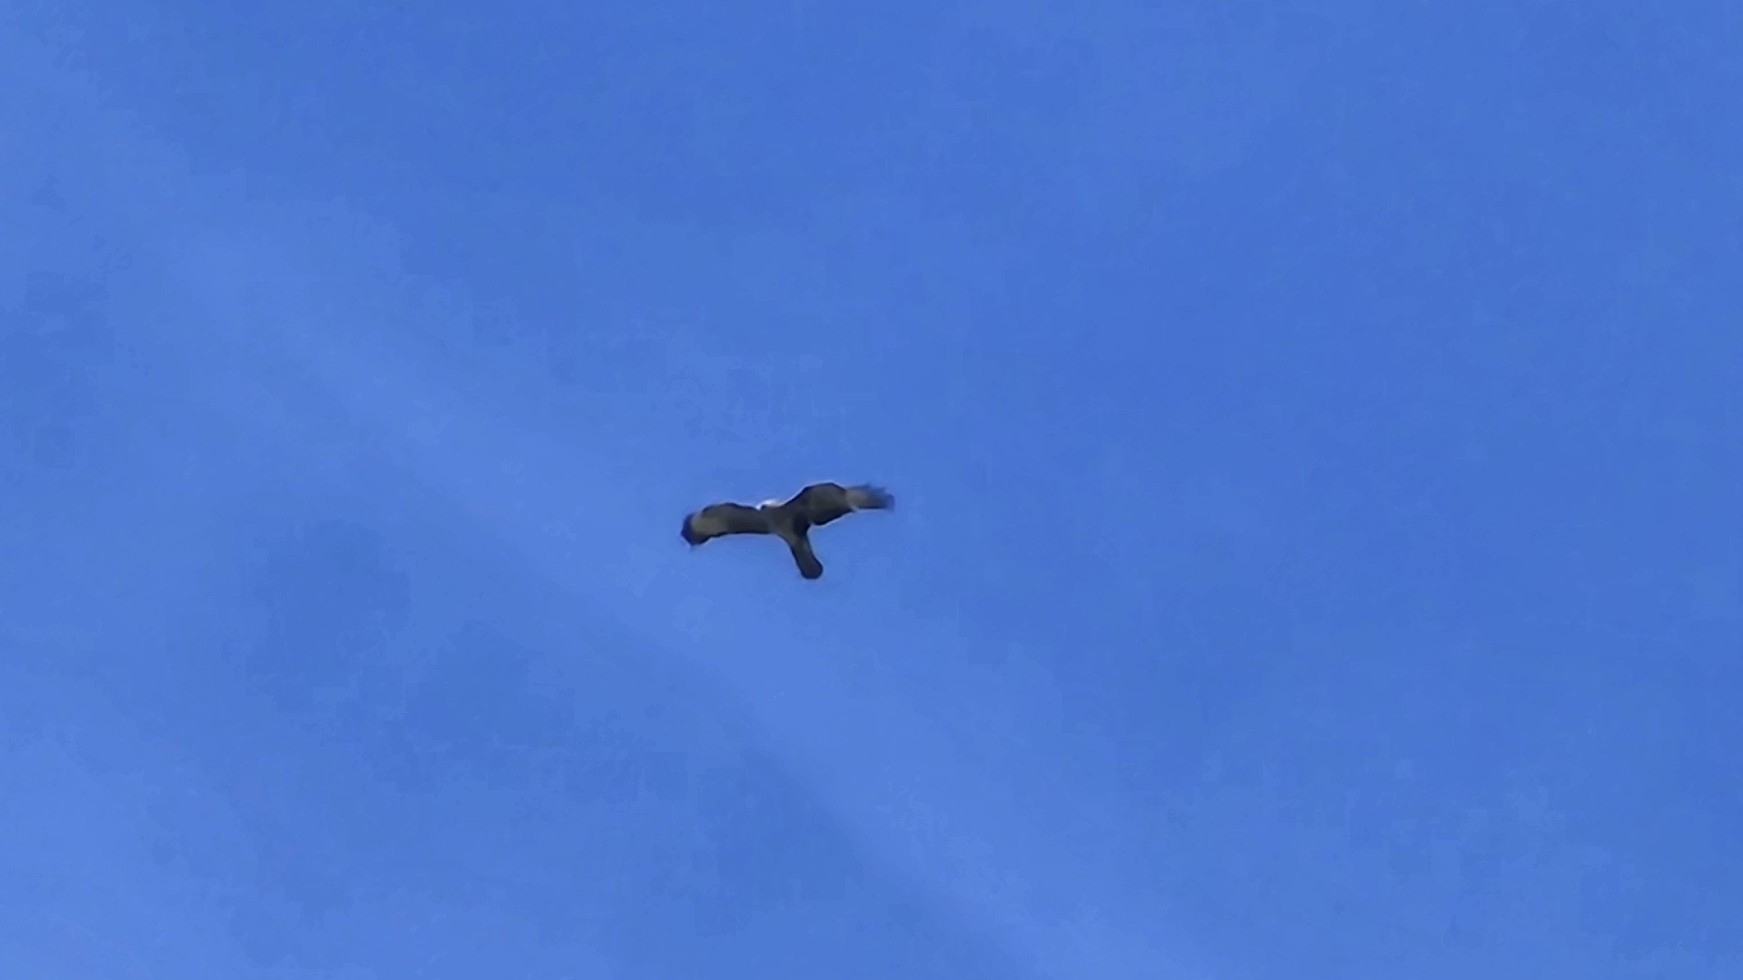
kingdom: Animalia
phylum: Chordata
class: Aves
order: Accipitriformes
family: Accipitridae
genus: Buteo
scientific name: Buteo buteo
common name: Common buzzard
